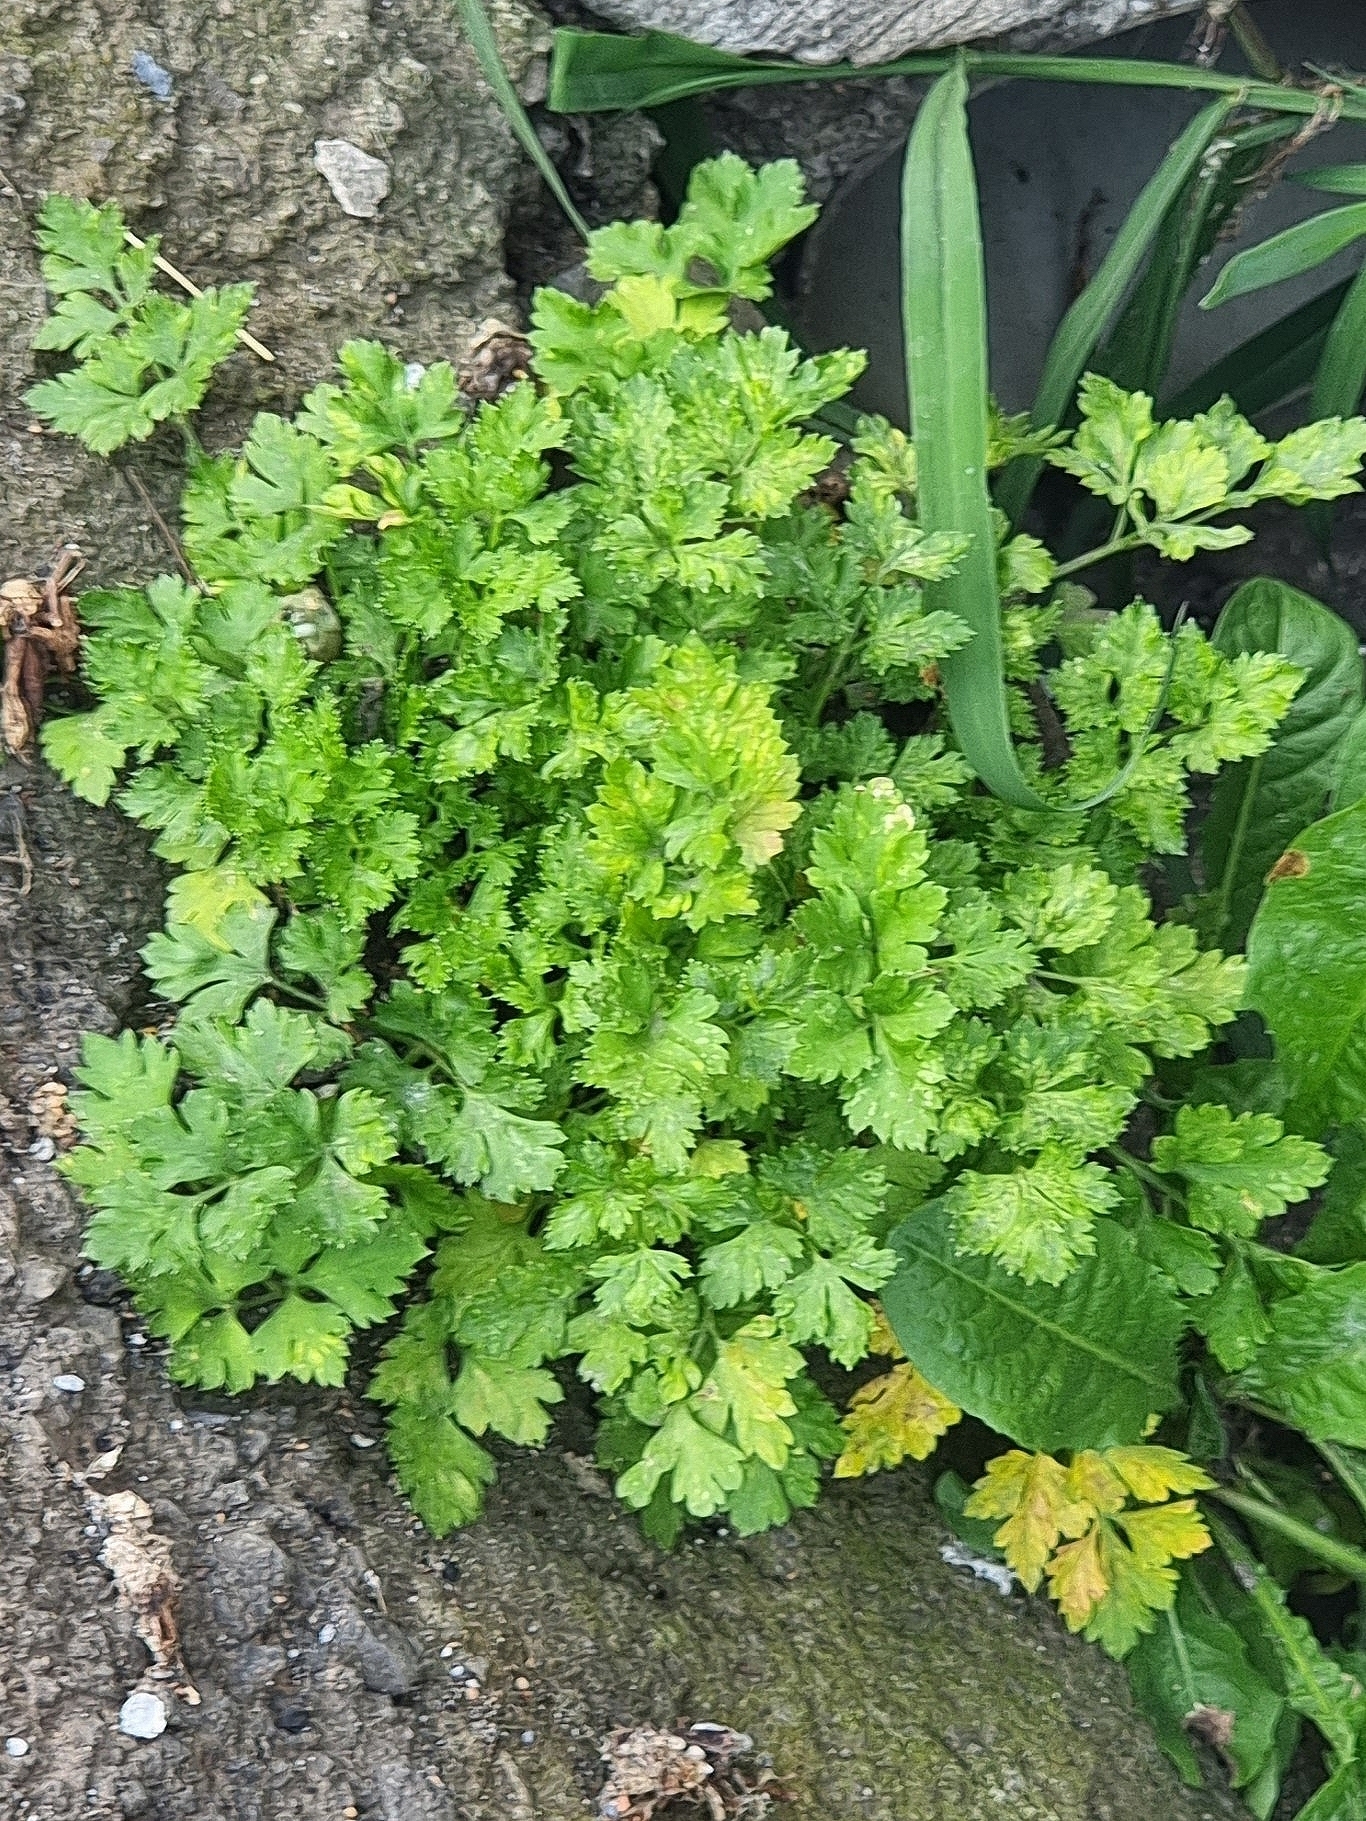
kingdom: Plantae
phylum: Tracheophyta
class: Magnoliopsida
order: Apiales
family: Apiaceae
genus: Petroselinum
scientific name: Petroselinum crispum
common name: Parsley
